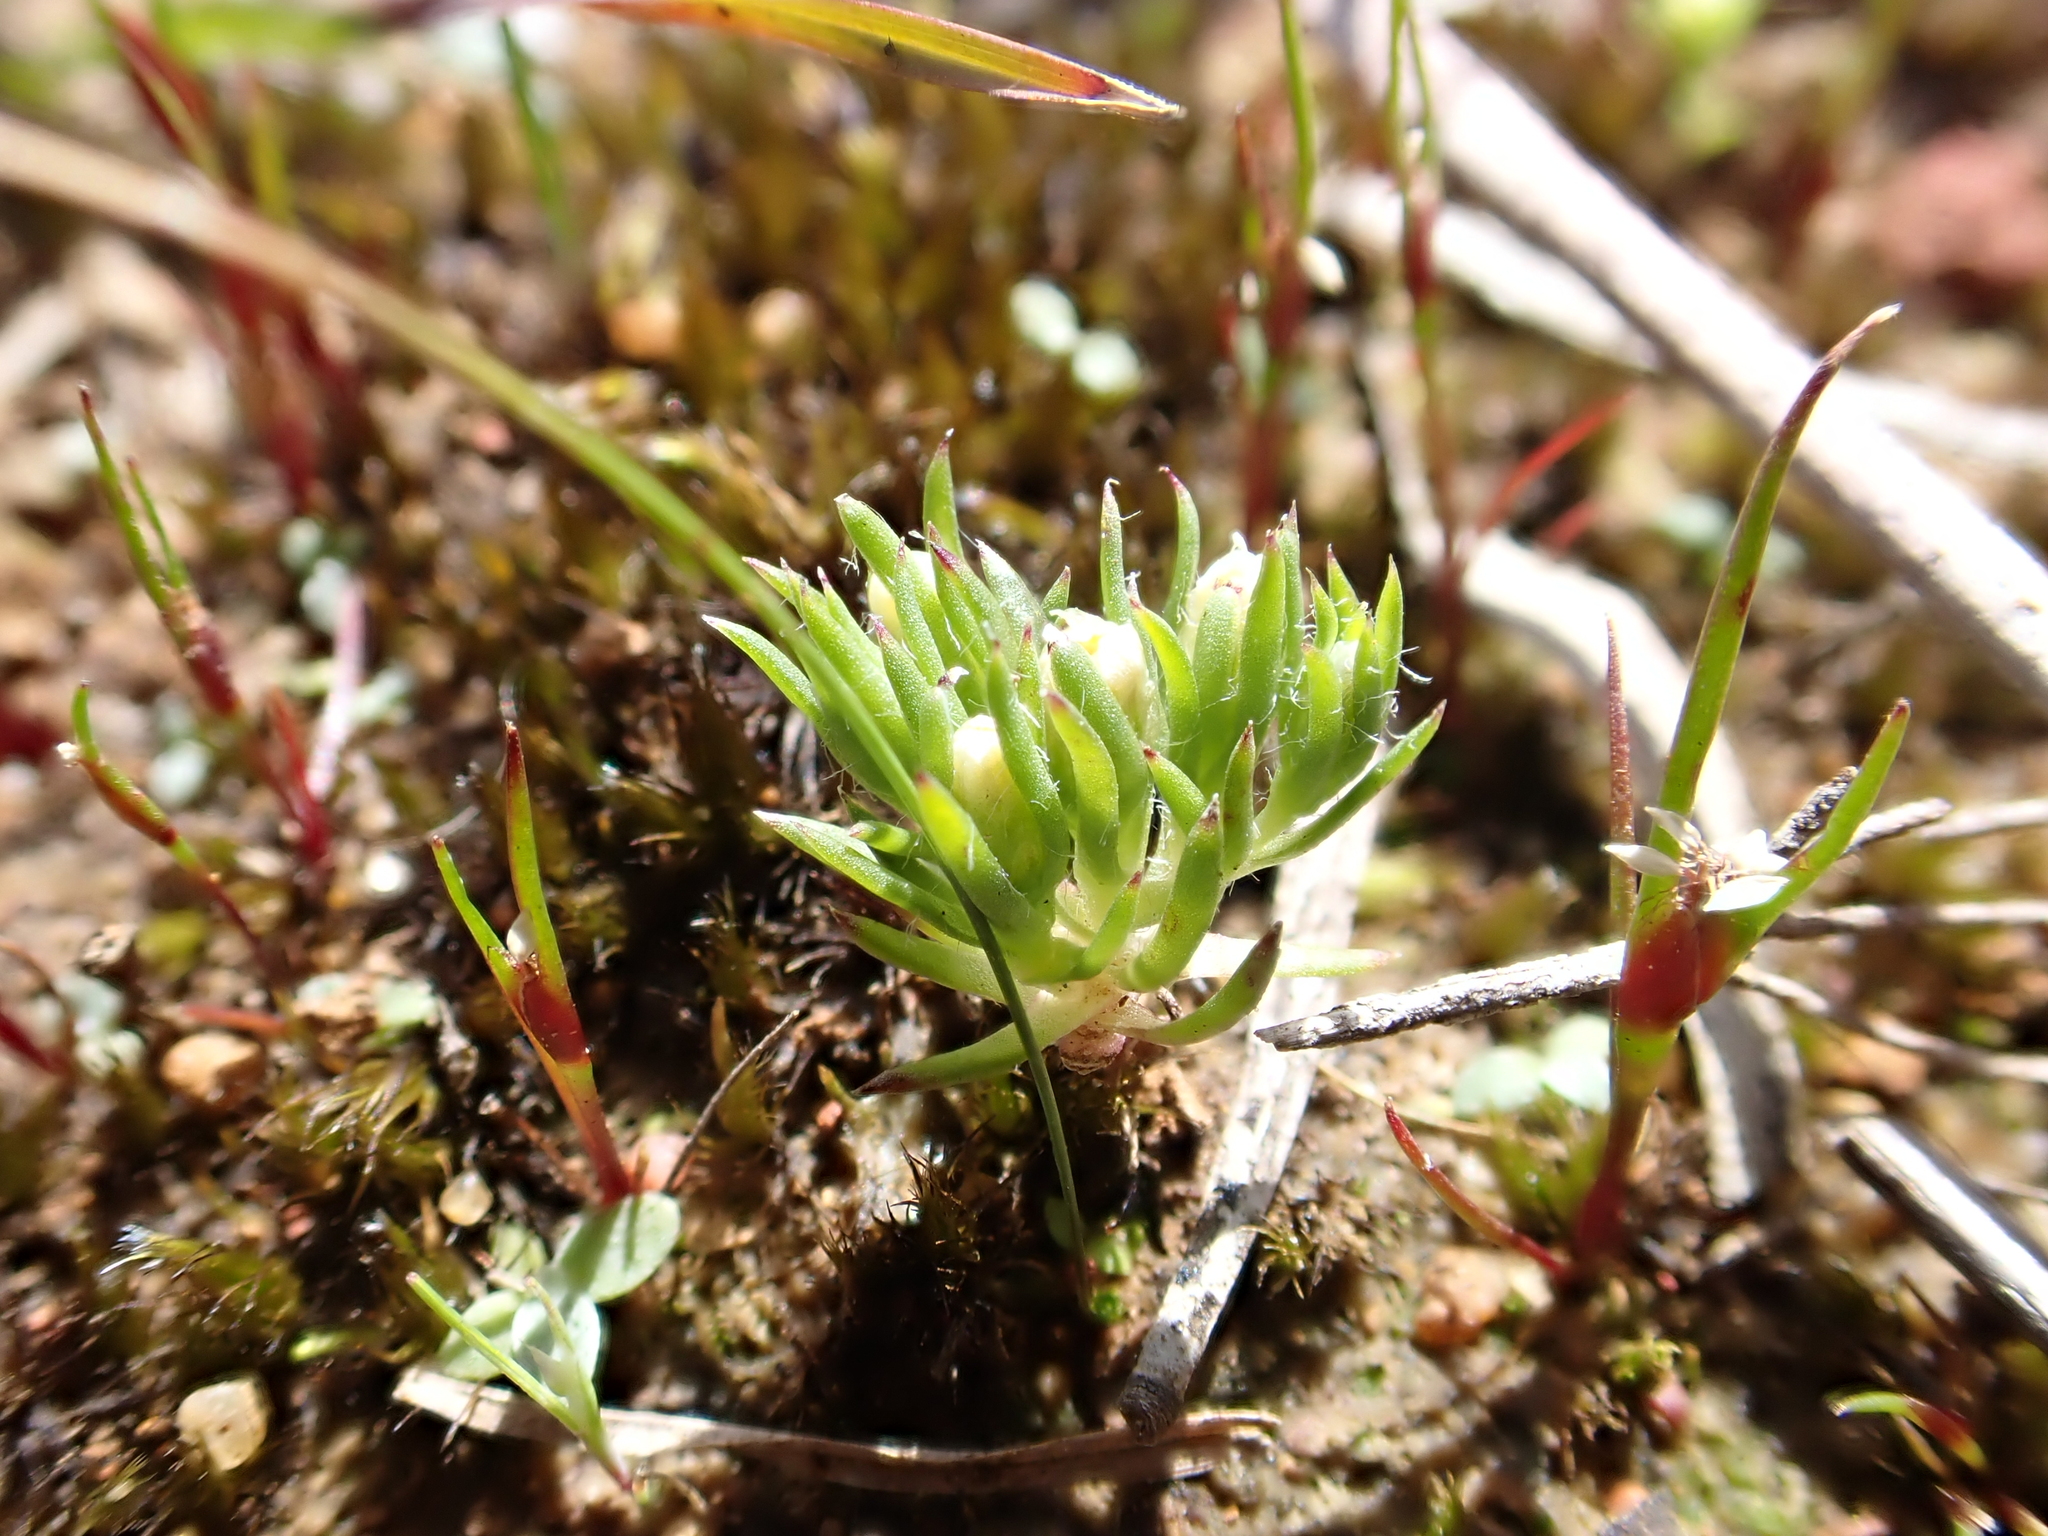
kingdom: Plantae
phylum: Tracheophyta
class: Magnoliopsida
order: Asterales
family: Asteraceae
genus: Hyalosperma
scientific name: Hyalosperma demissum
